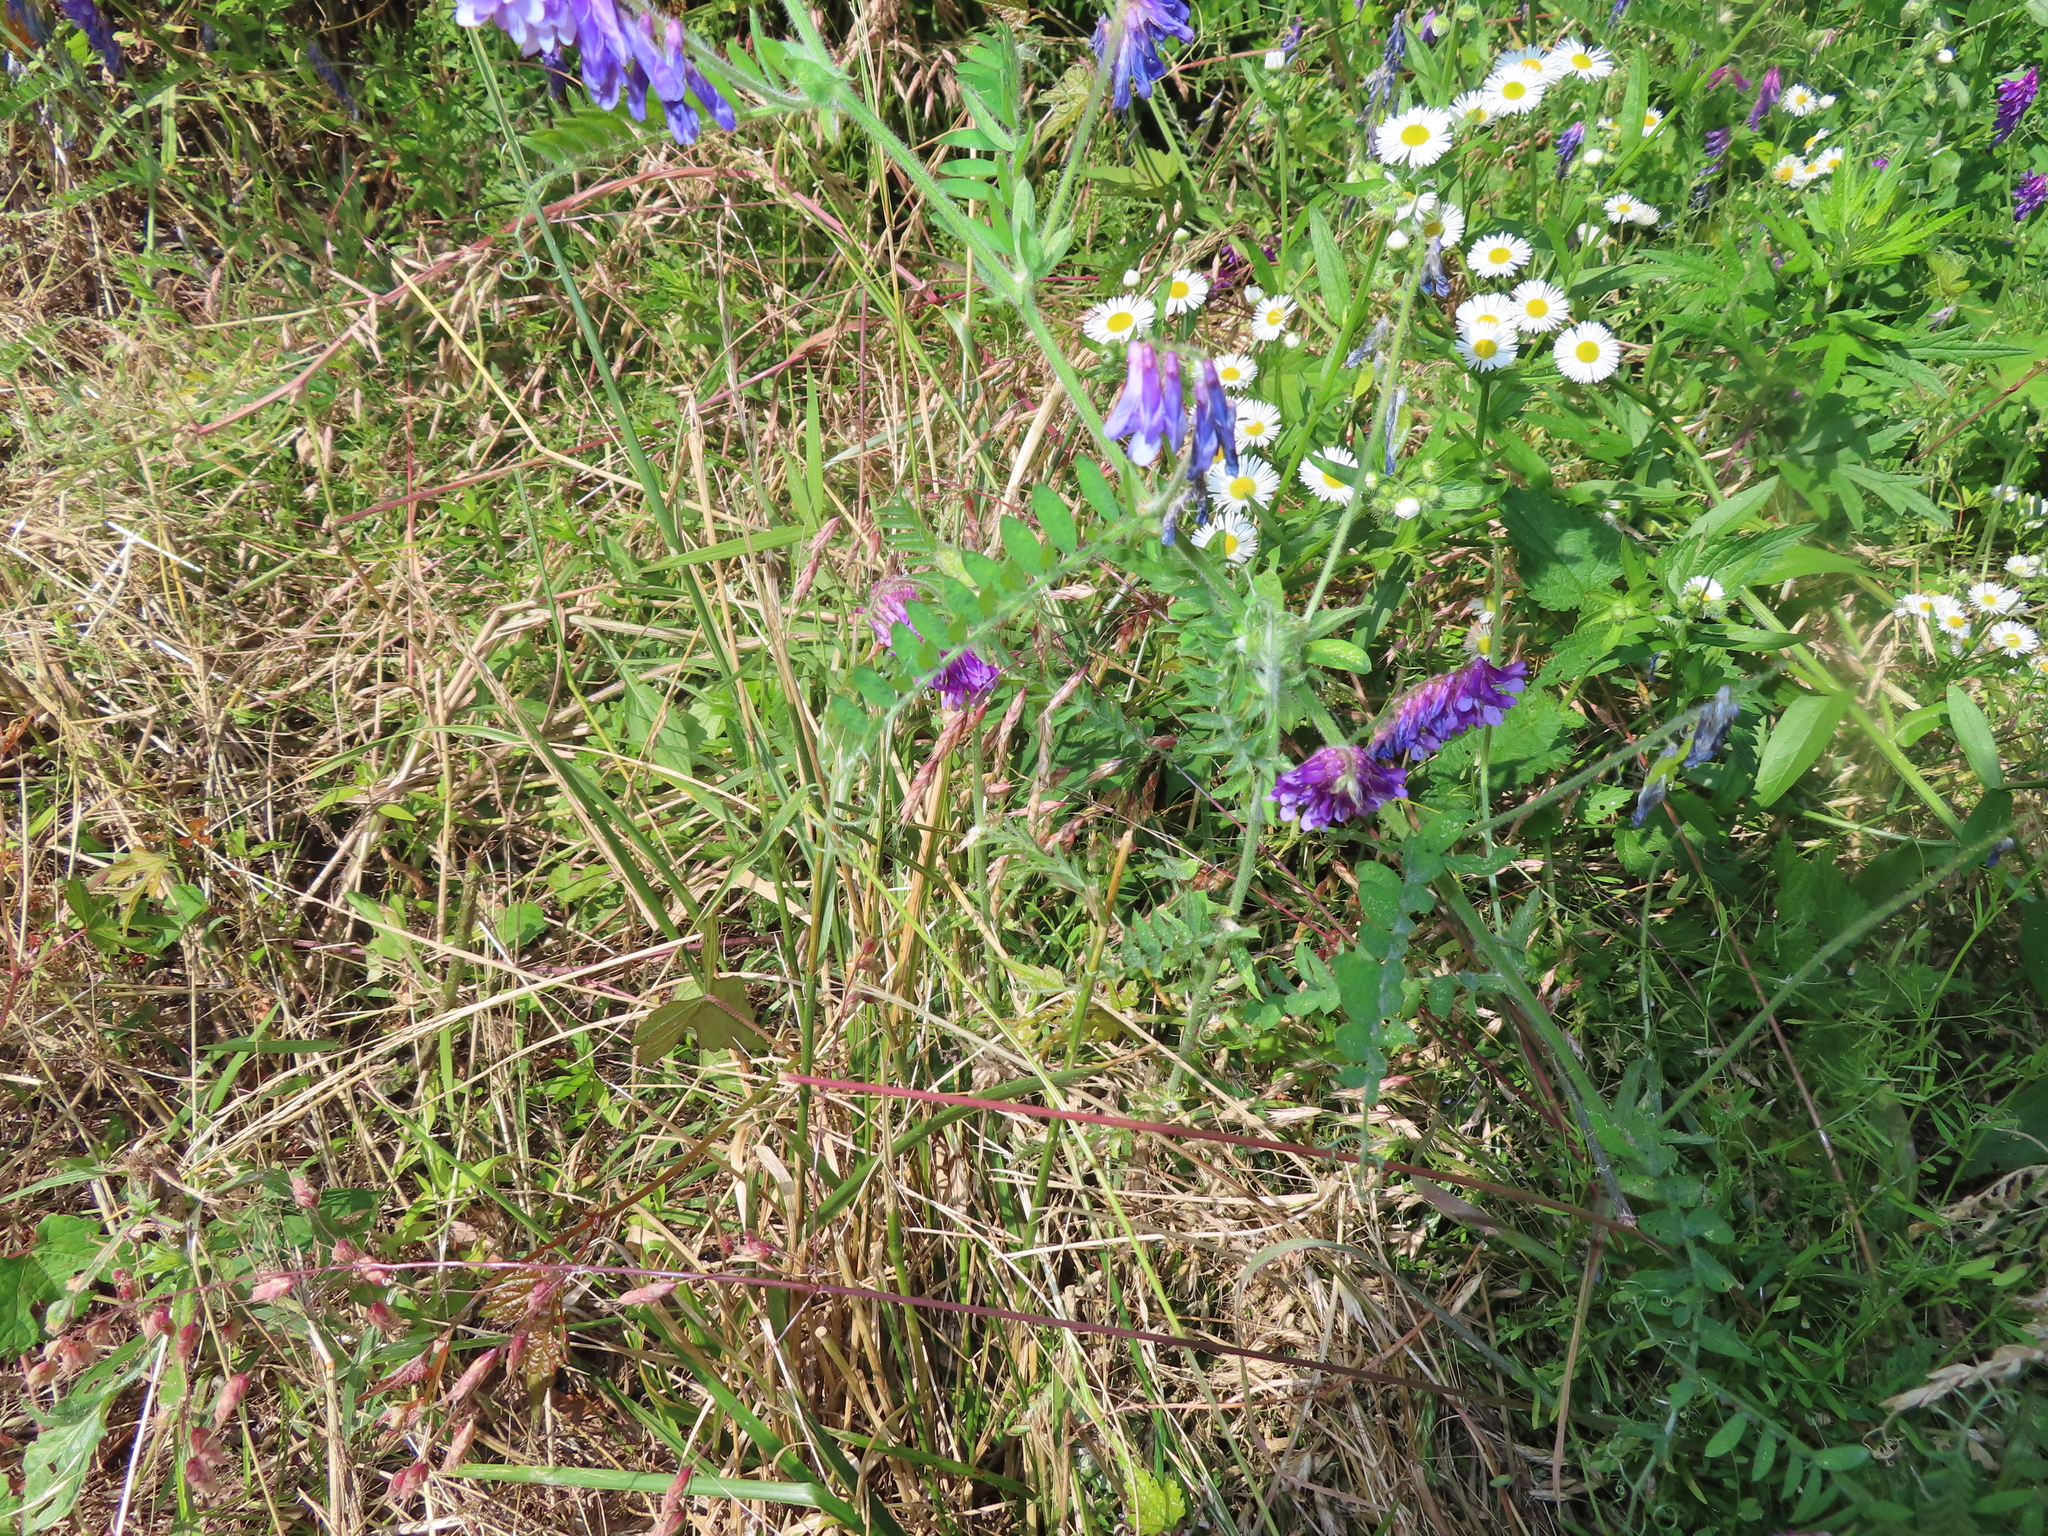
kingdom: Plantae
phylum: Tracheophyta
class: Magnoliopsida
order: Fabales
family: Fabaceae
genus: Vicia
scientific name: Vicia villosa
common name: Fodder vetch
